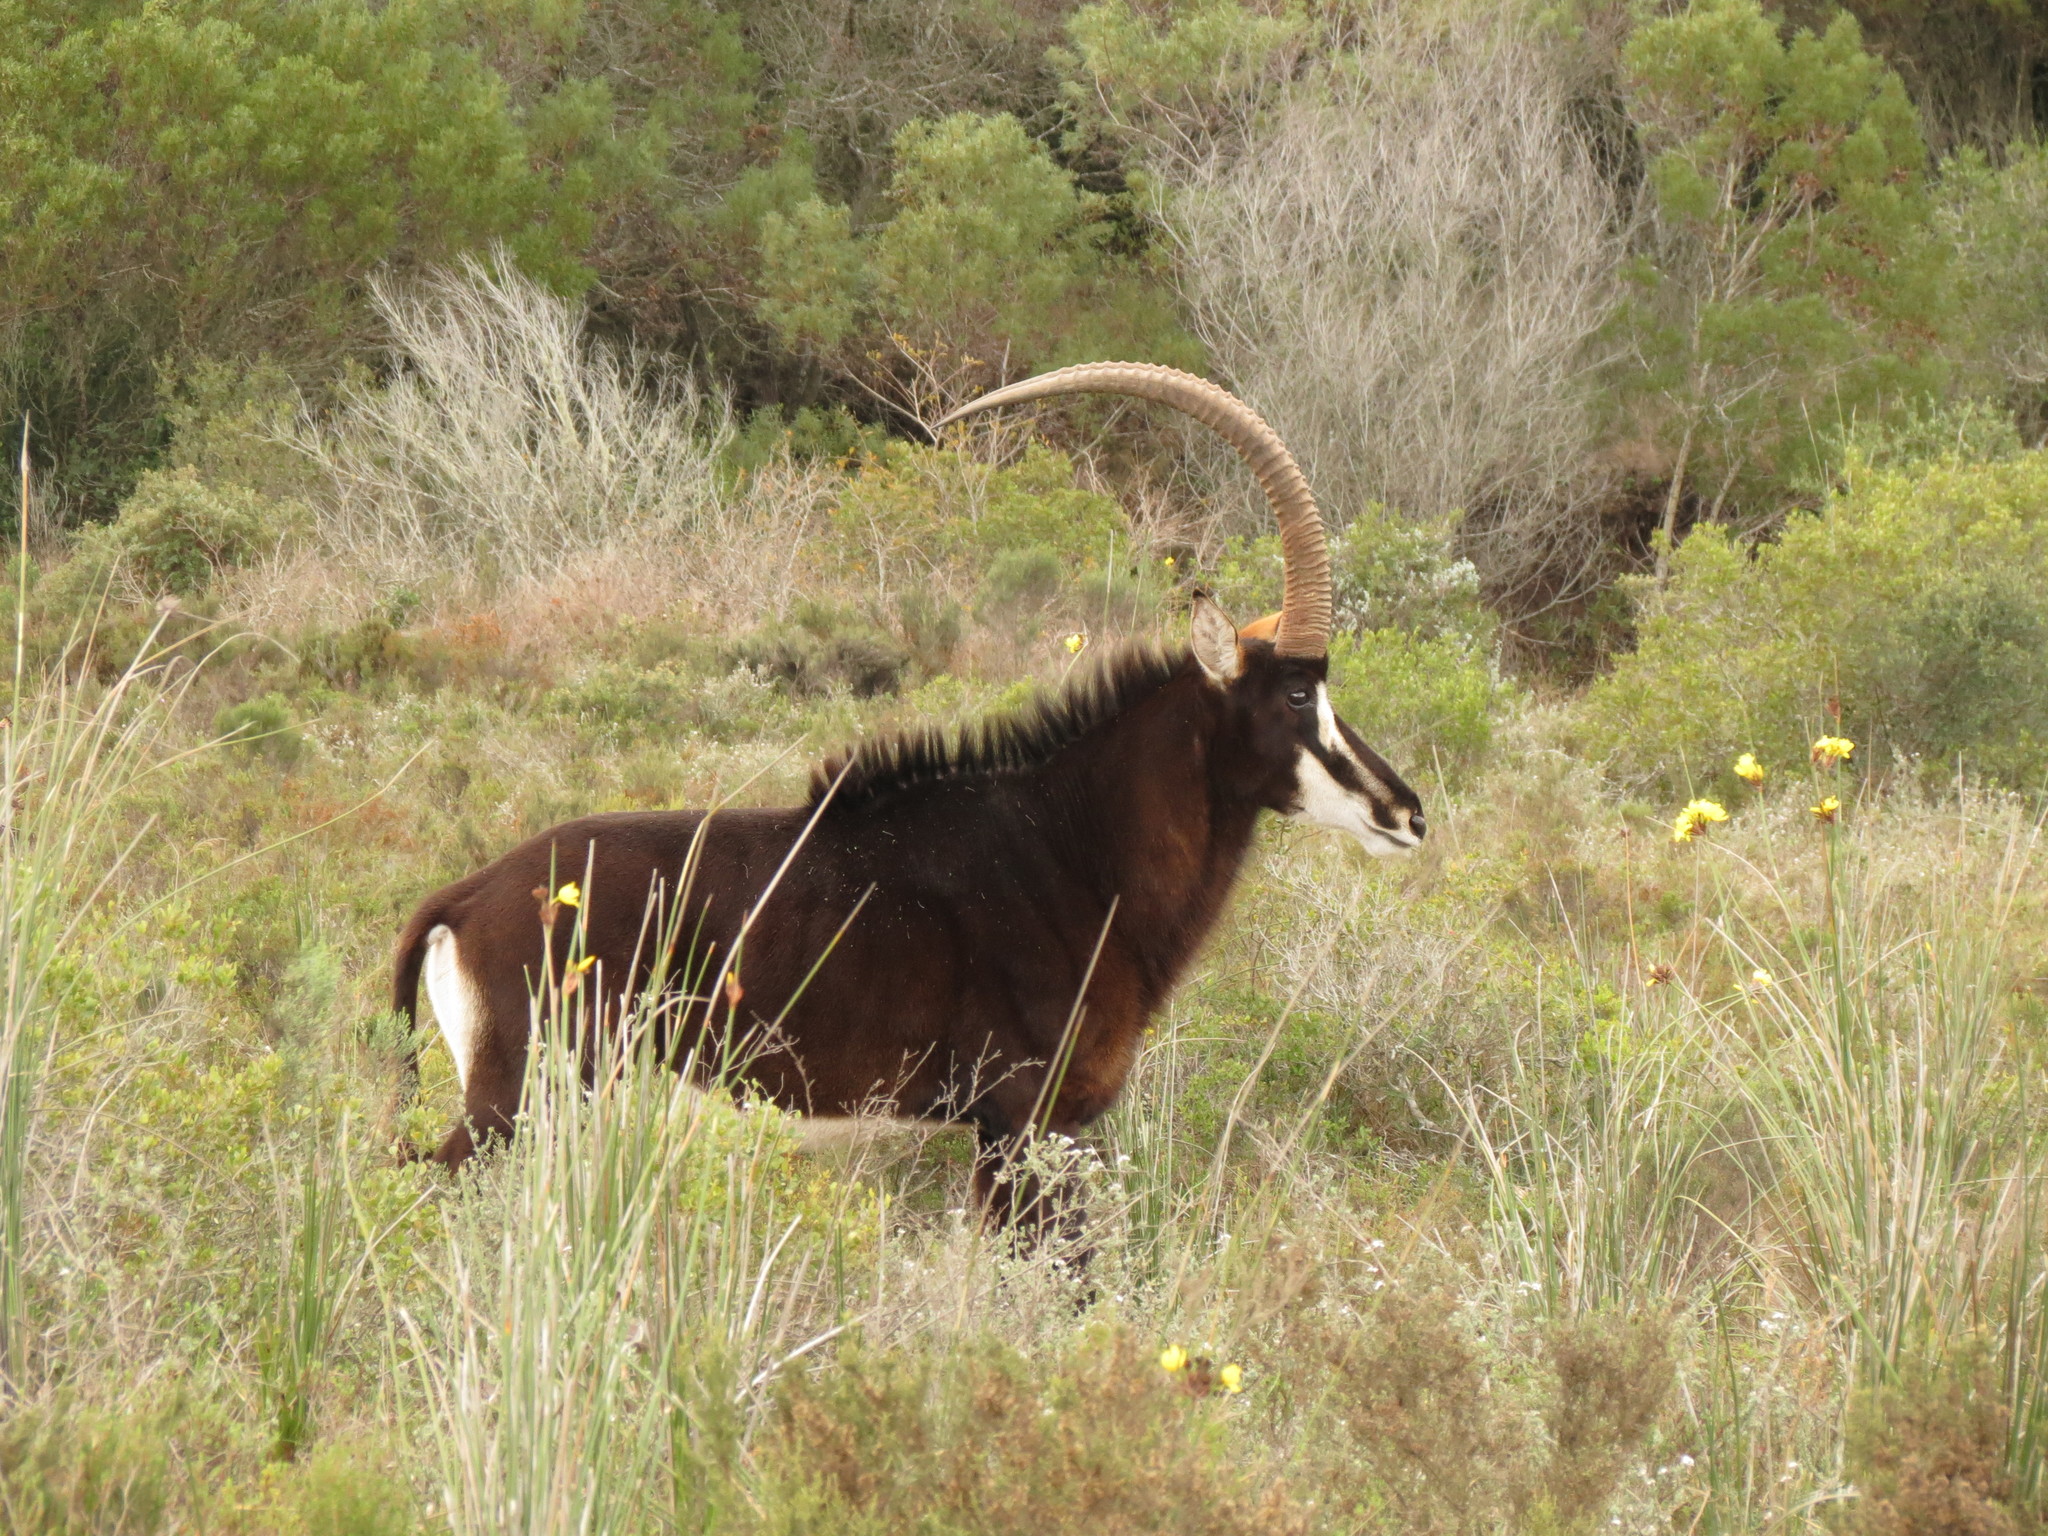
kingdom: Animalia
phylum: Chordata
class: Mammalia
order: Artiodactyla
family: Bovidae
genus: Hippotragus
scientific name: Hippotragus niger
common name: Sable antelope
